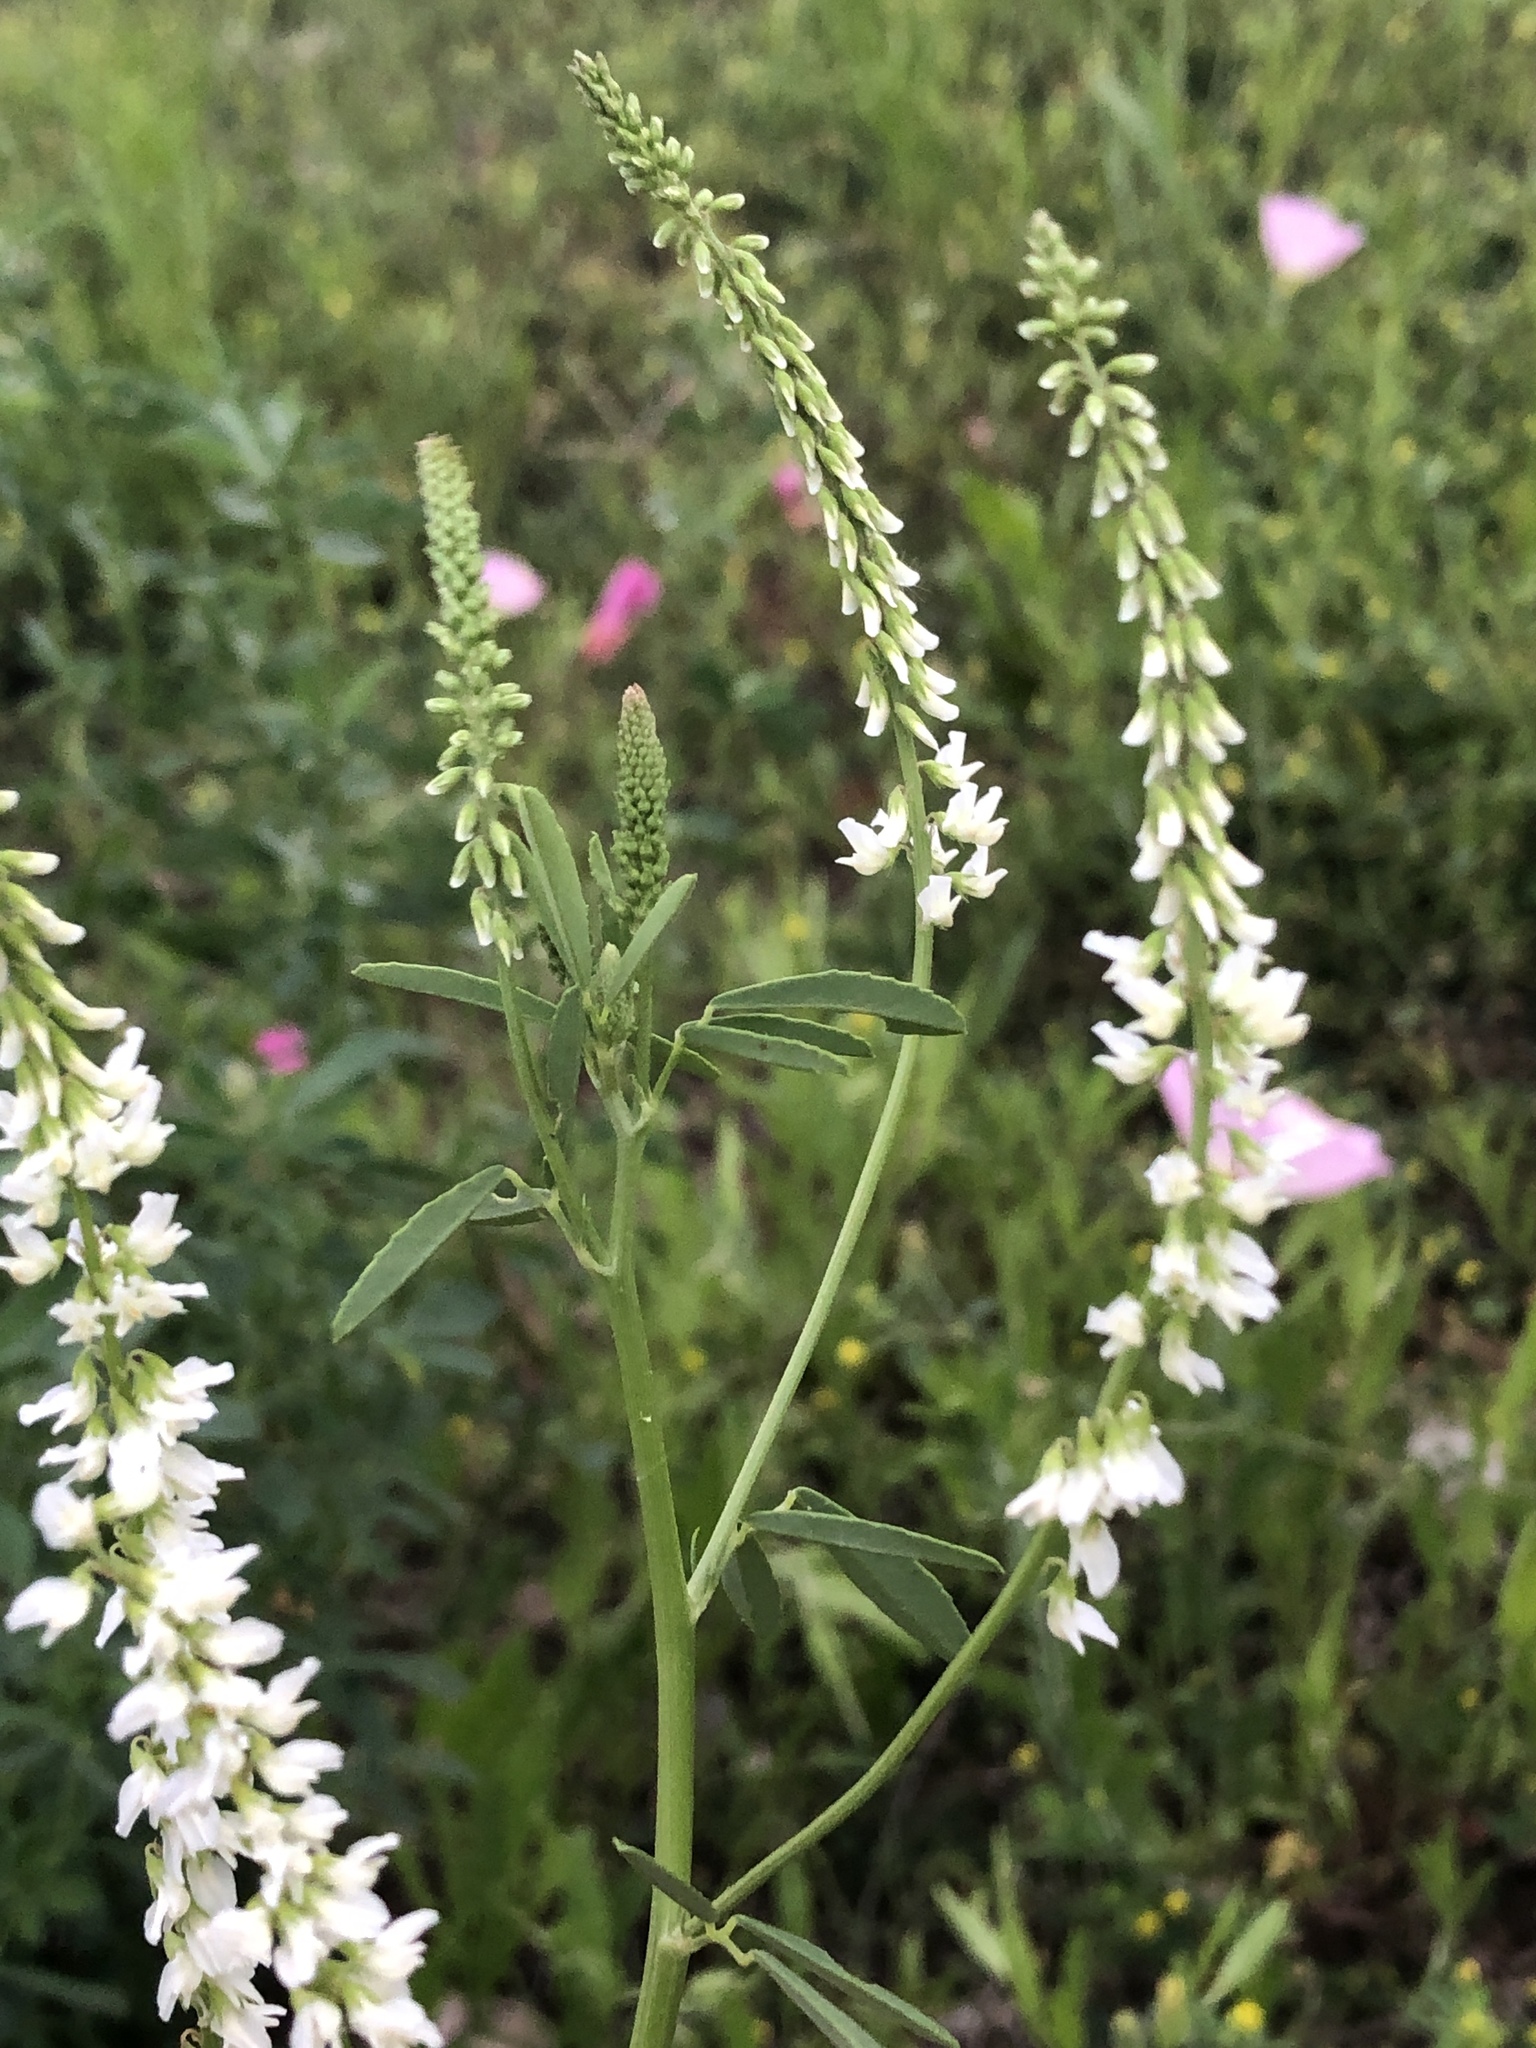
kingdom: Plantae
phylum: Tracheophyta
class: Magnoliopsida
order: Fabales
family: Fabaceae
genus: Melilotus
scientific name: Melilotus albus
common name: White melilot
